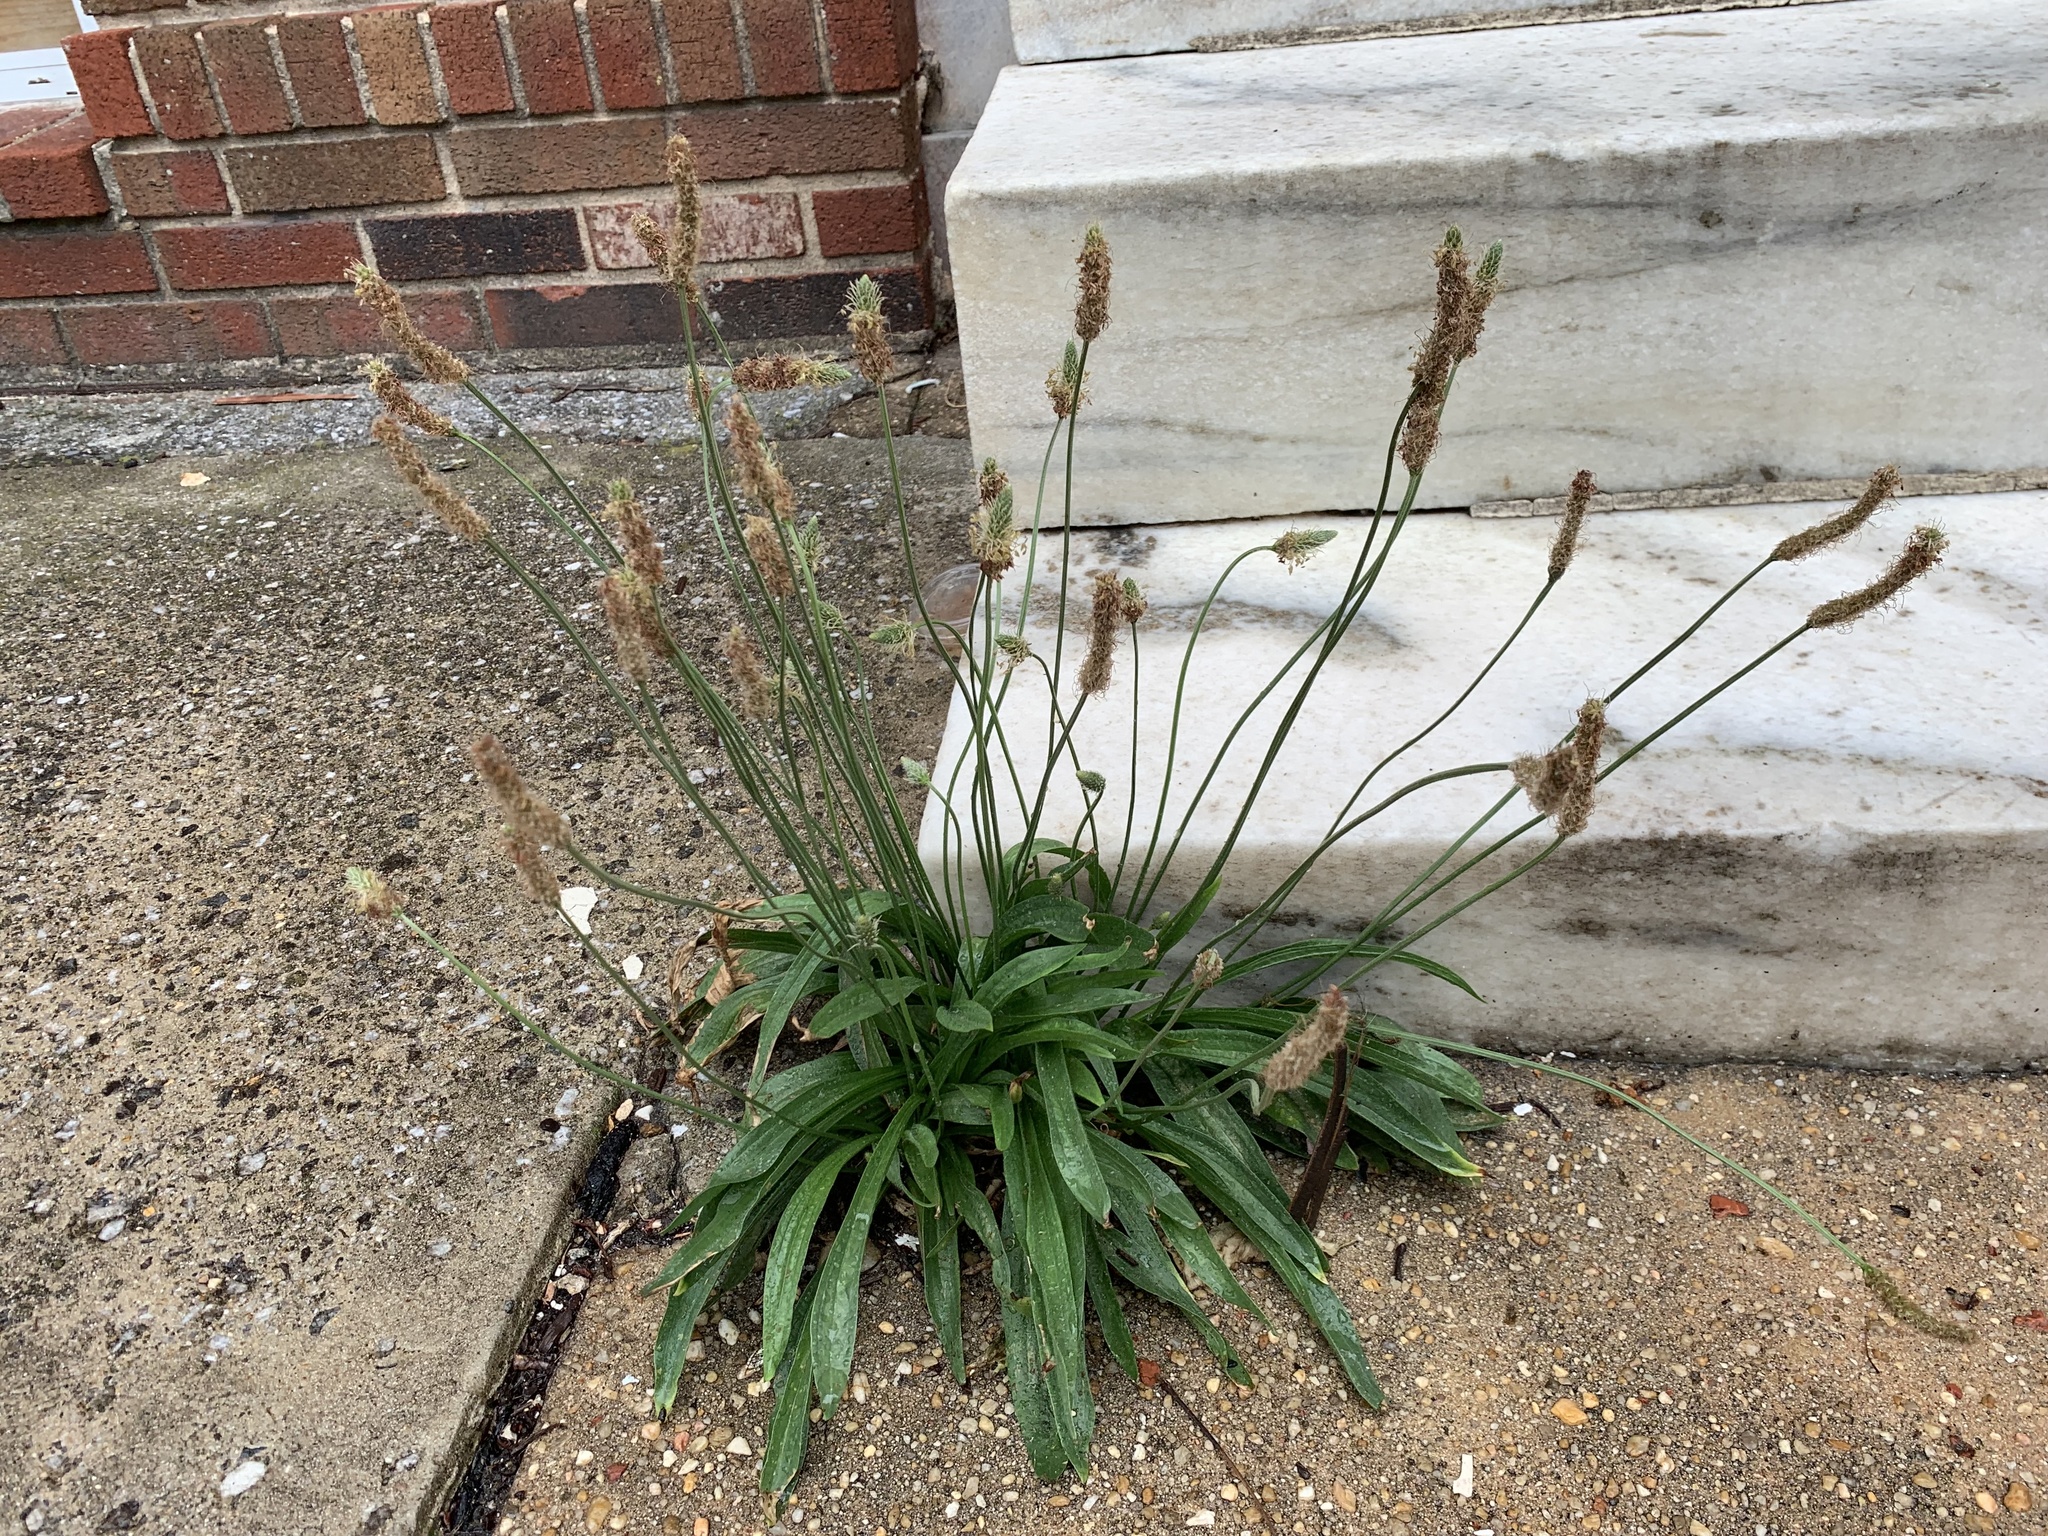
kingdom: Plantae
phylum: Tracheophyta
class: Magnoliopsida
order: Lamiales
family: Plantaginaceae
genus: Plantago
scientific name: Plantago lanceolata
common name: Ribwort plantain
